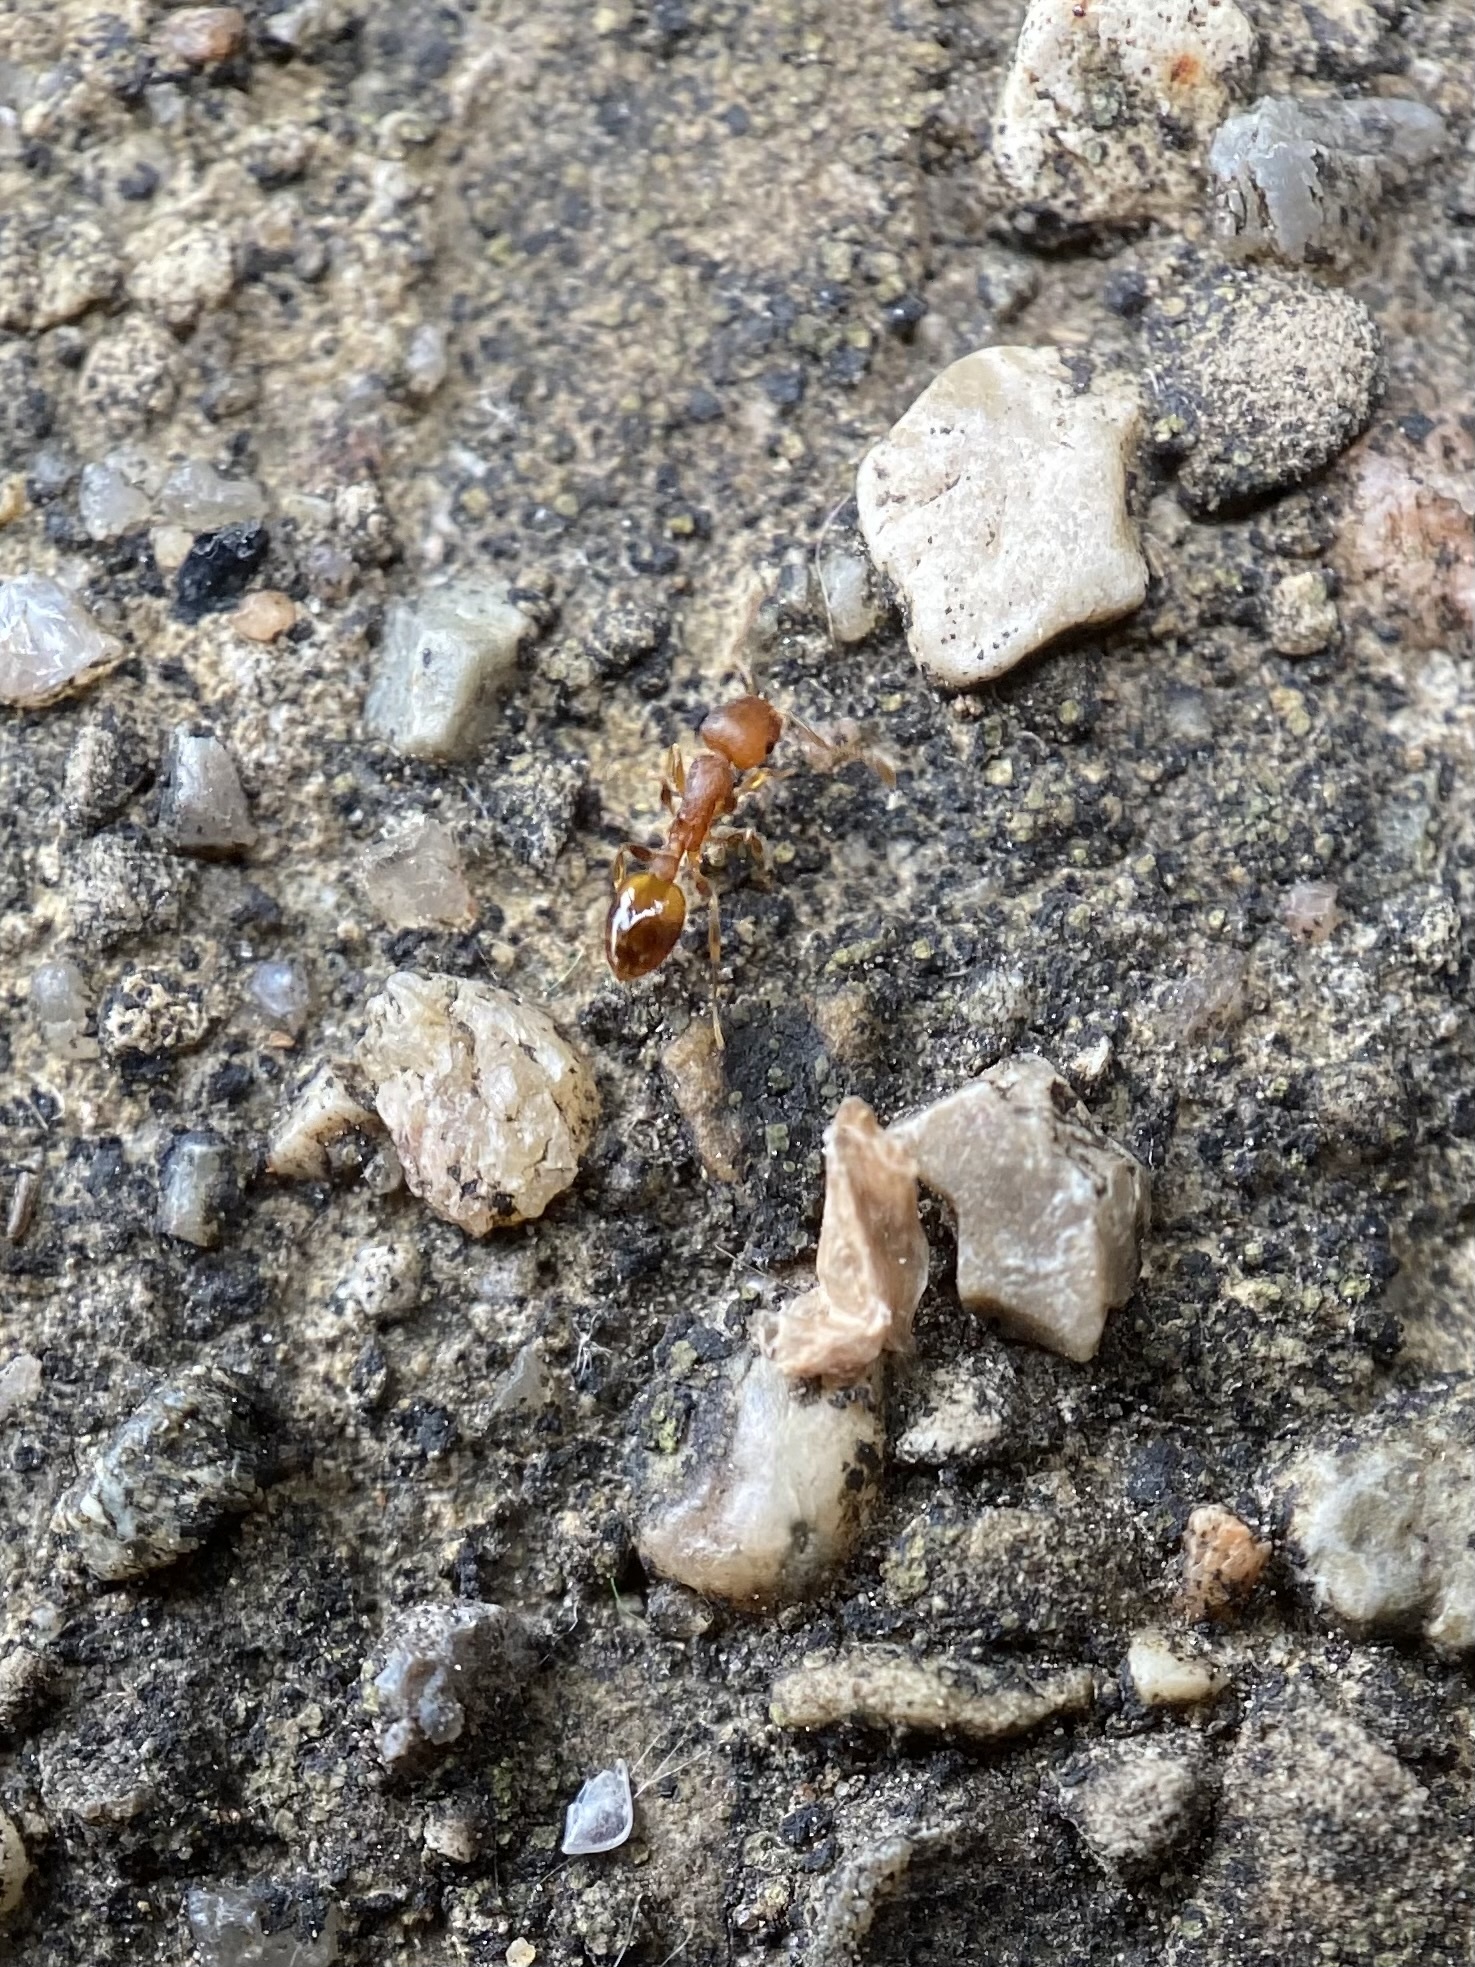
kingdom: Animalia
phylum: Arthropoda
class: Insecta
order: Hymenoptera
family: Formicidae
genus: Temnothorax
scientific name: Temnothorax curvispinosus
